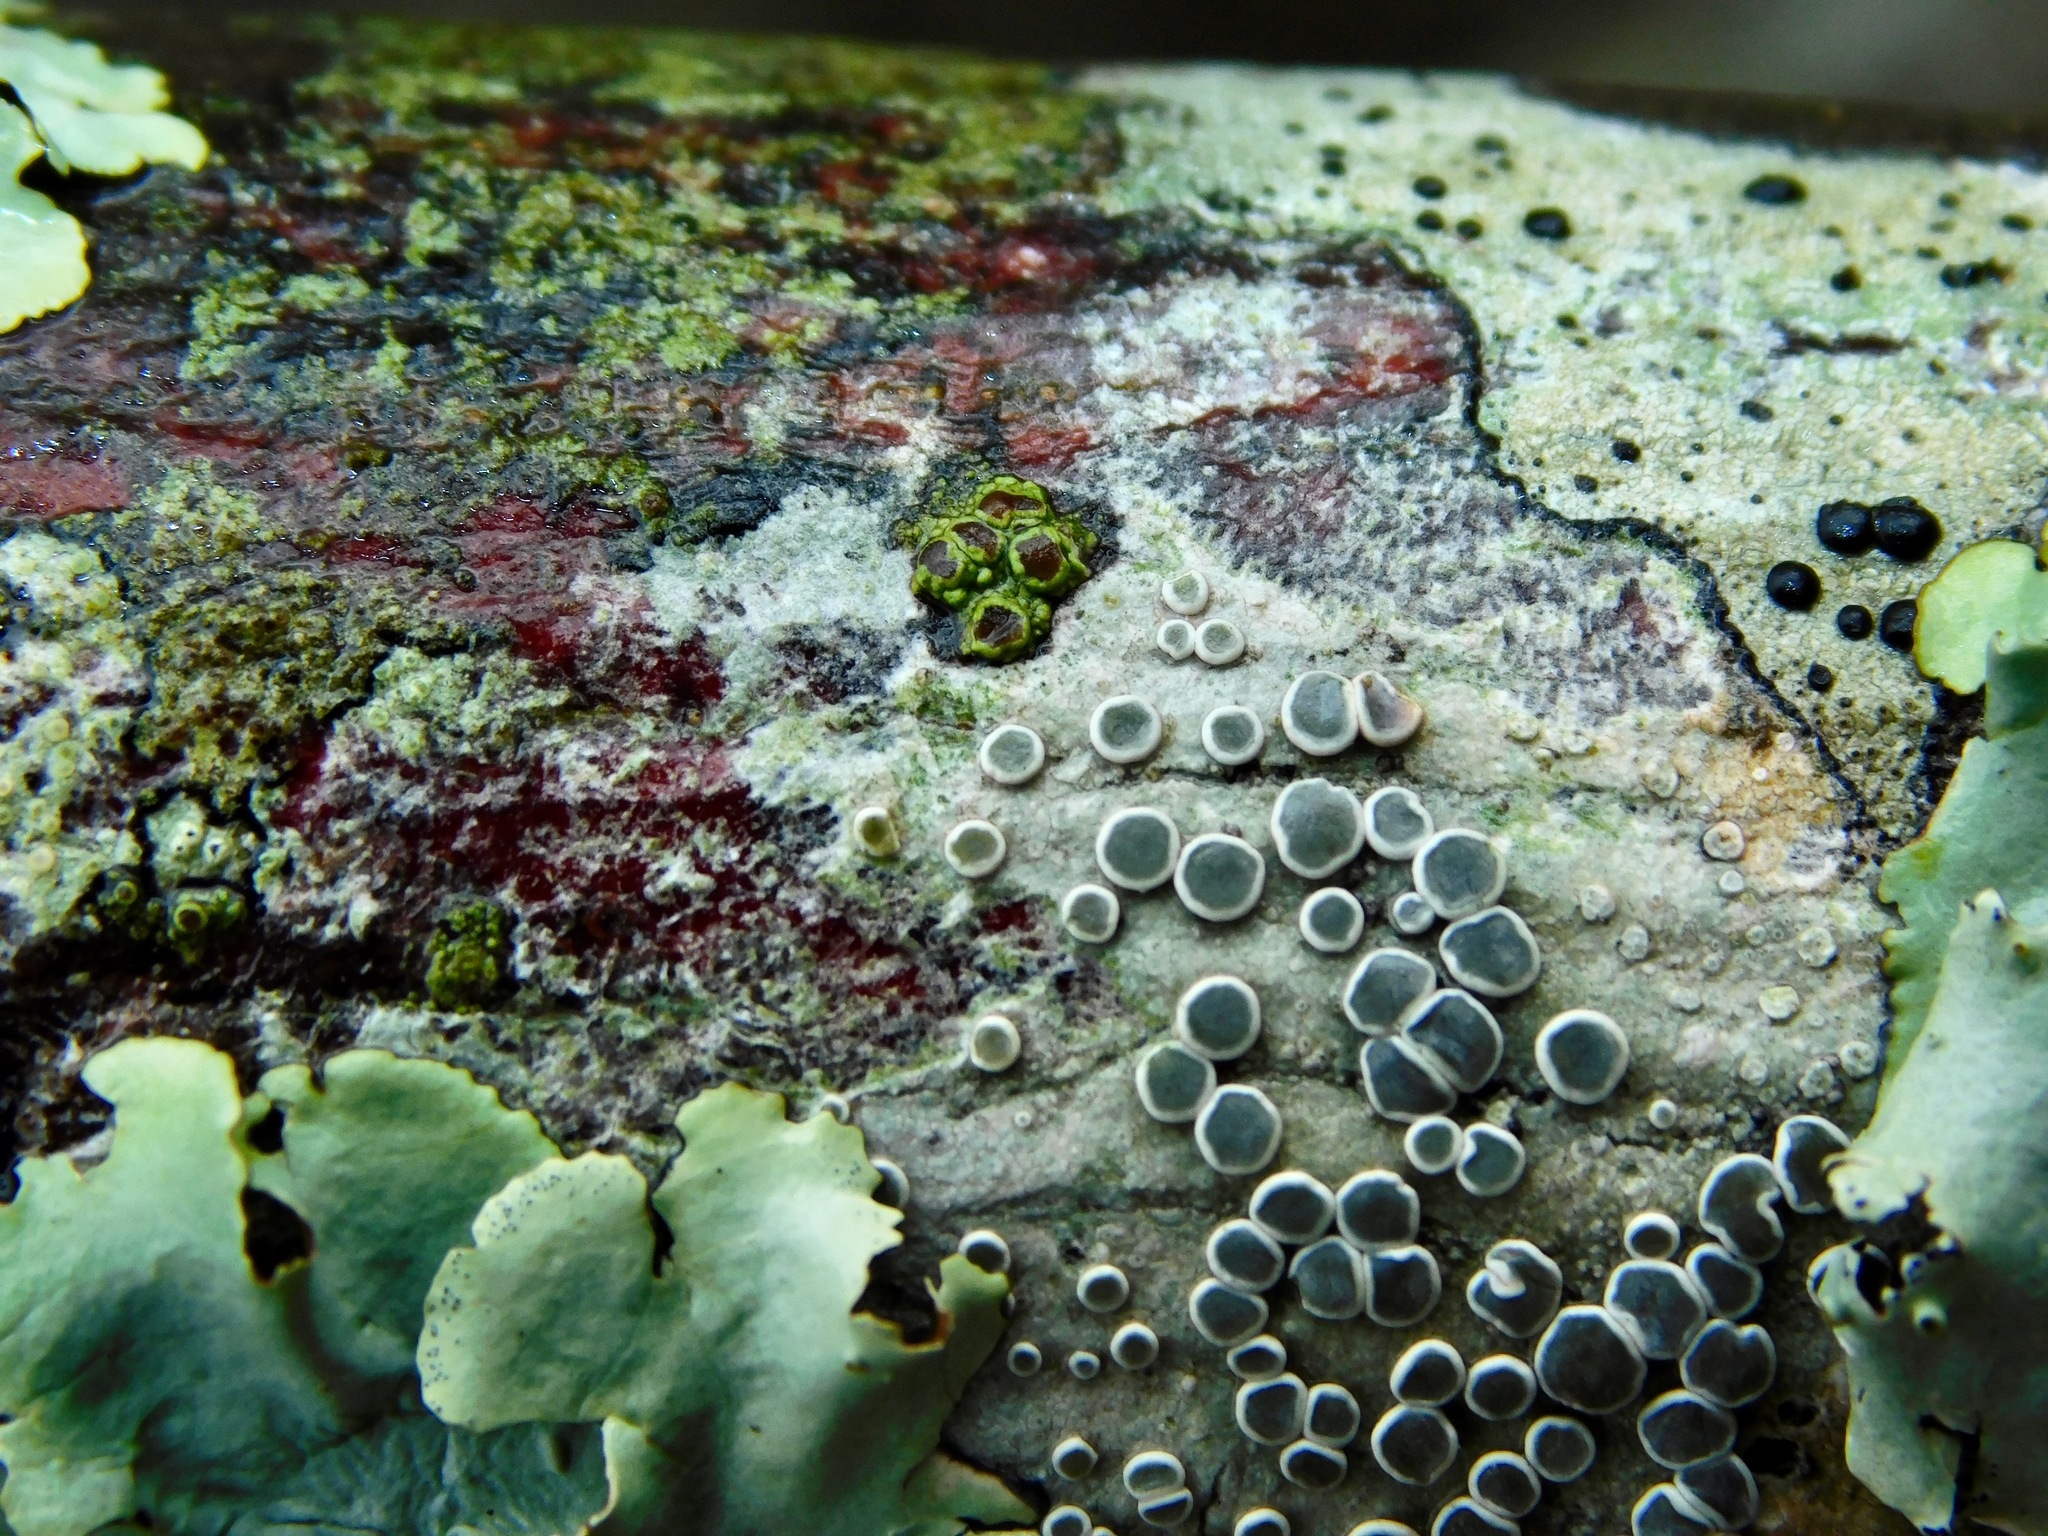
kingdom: Fungi
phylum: Ascomycota
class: Lecanoromycetes
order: Umbilicariales
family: Fuscideaceae
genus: Maronea
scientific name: Maronea polyphaea
